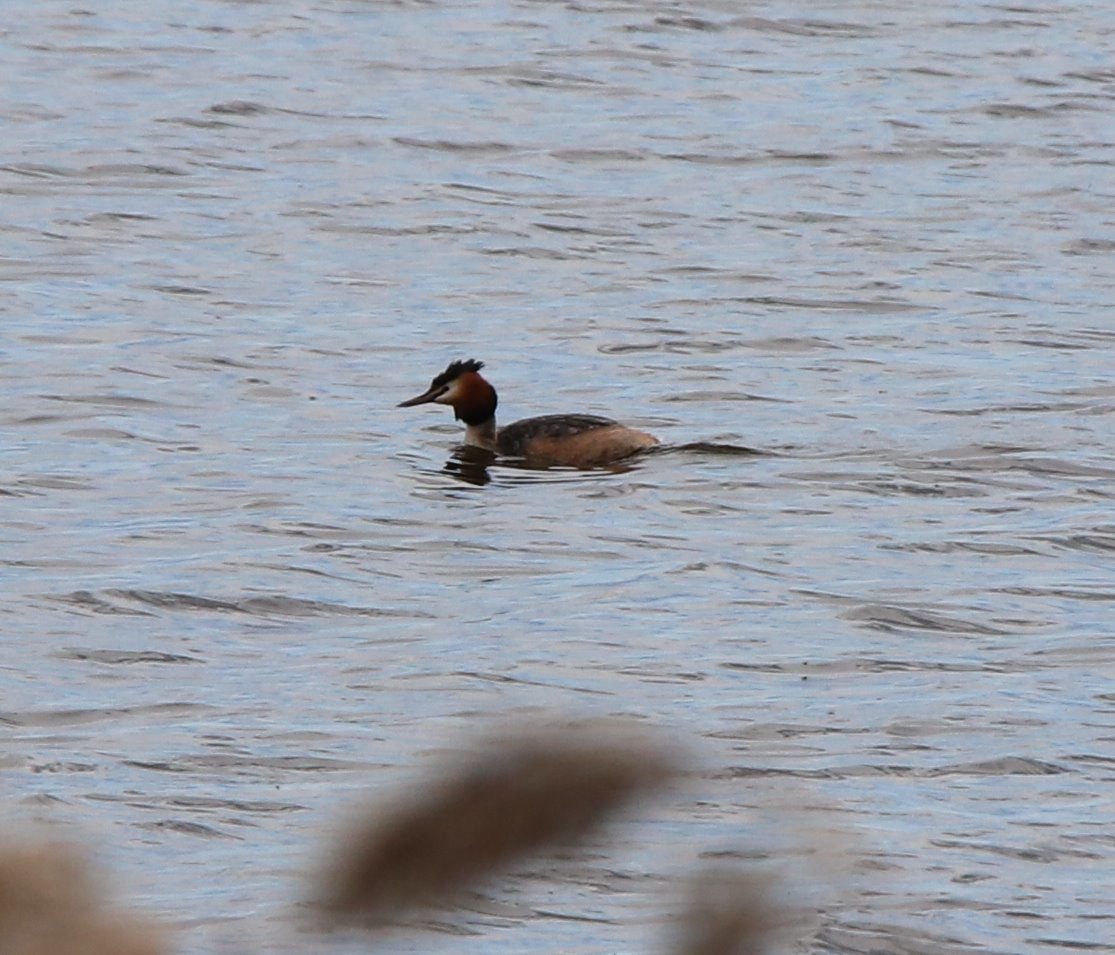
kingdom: Animalia
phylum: Chordata
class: Aves
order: Podicipediformes
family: Podicipedidae
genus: Podiceps
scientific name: Podiceps cristatus
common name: Great crested grebe
